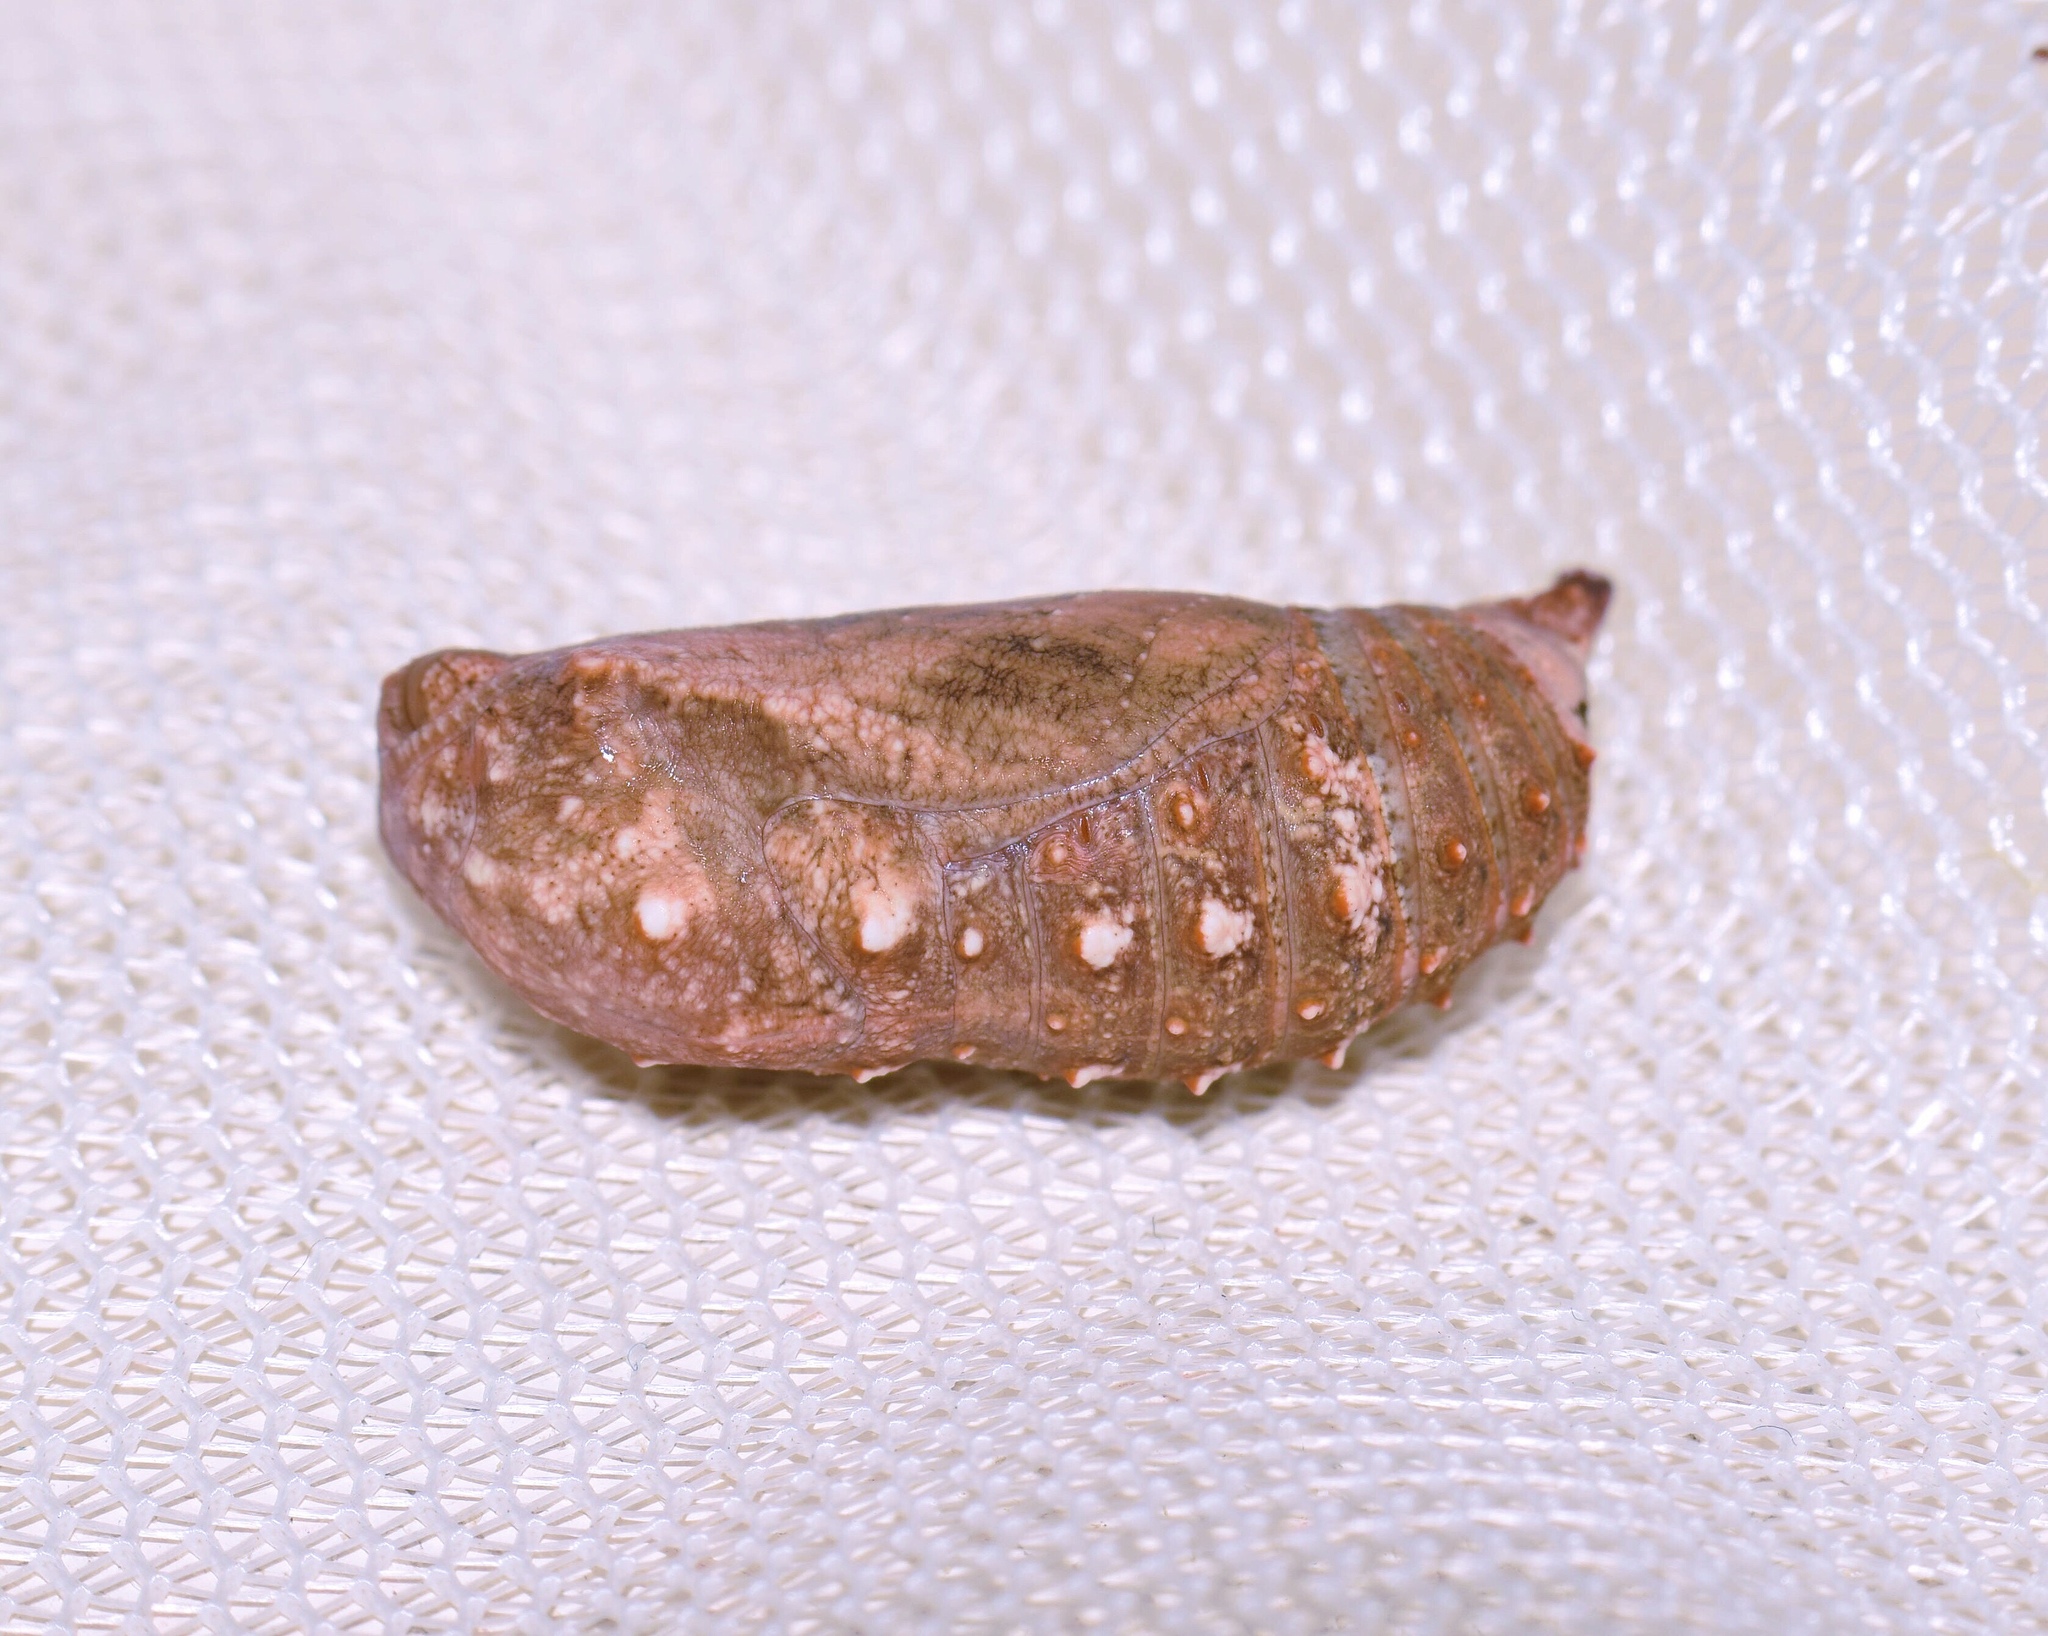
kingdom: Animalia
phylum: Arthropoda
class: Insecta
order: Lepidoptera
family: Nymphalidae
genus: Junonia
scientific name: Junonia oenone
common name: Dark blue pansy
